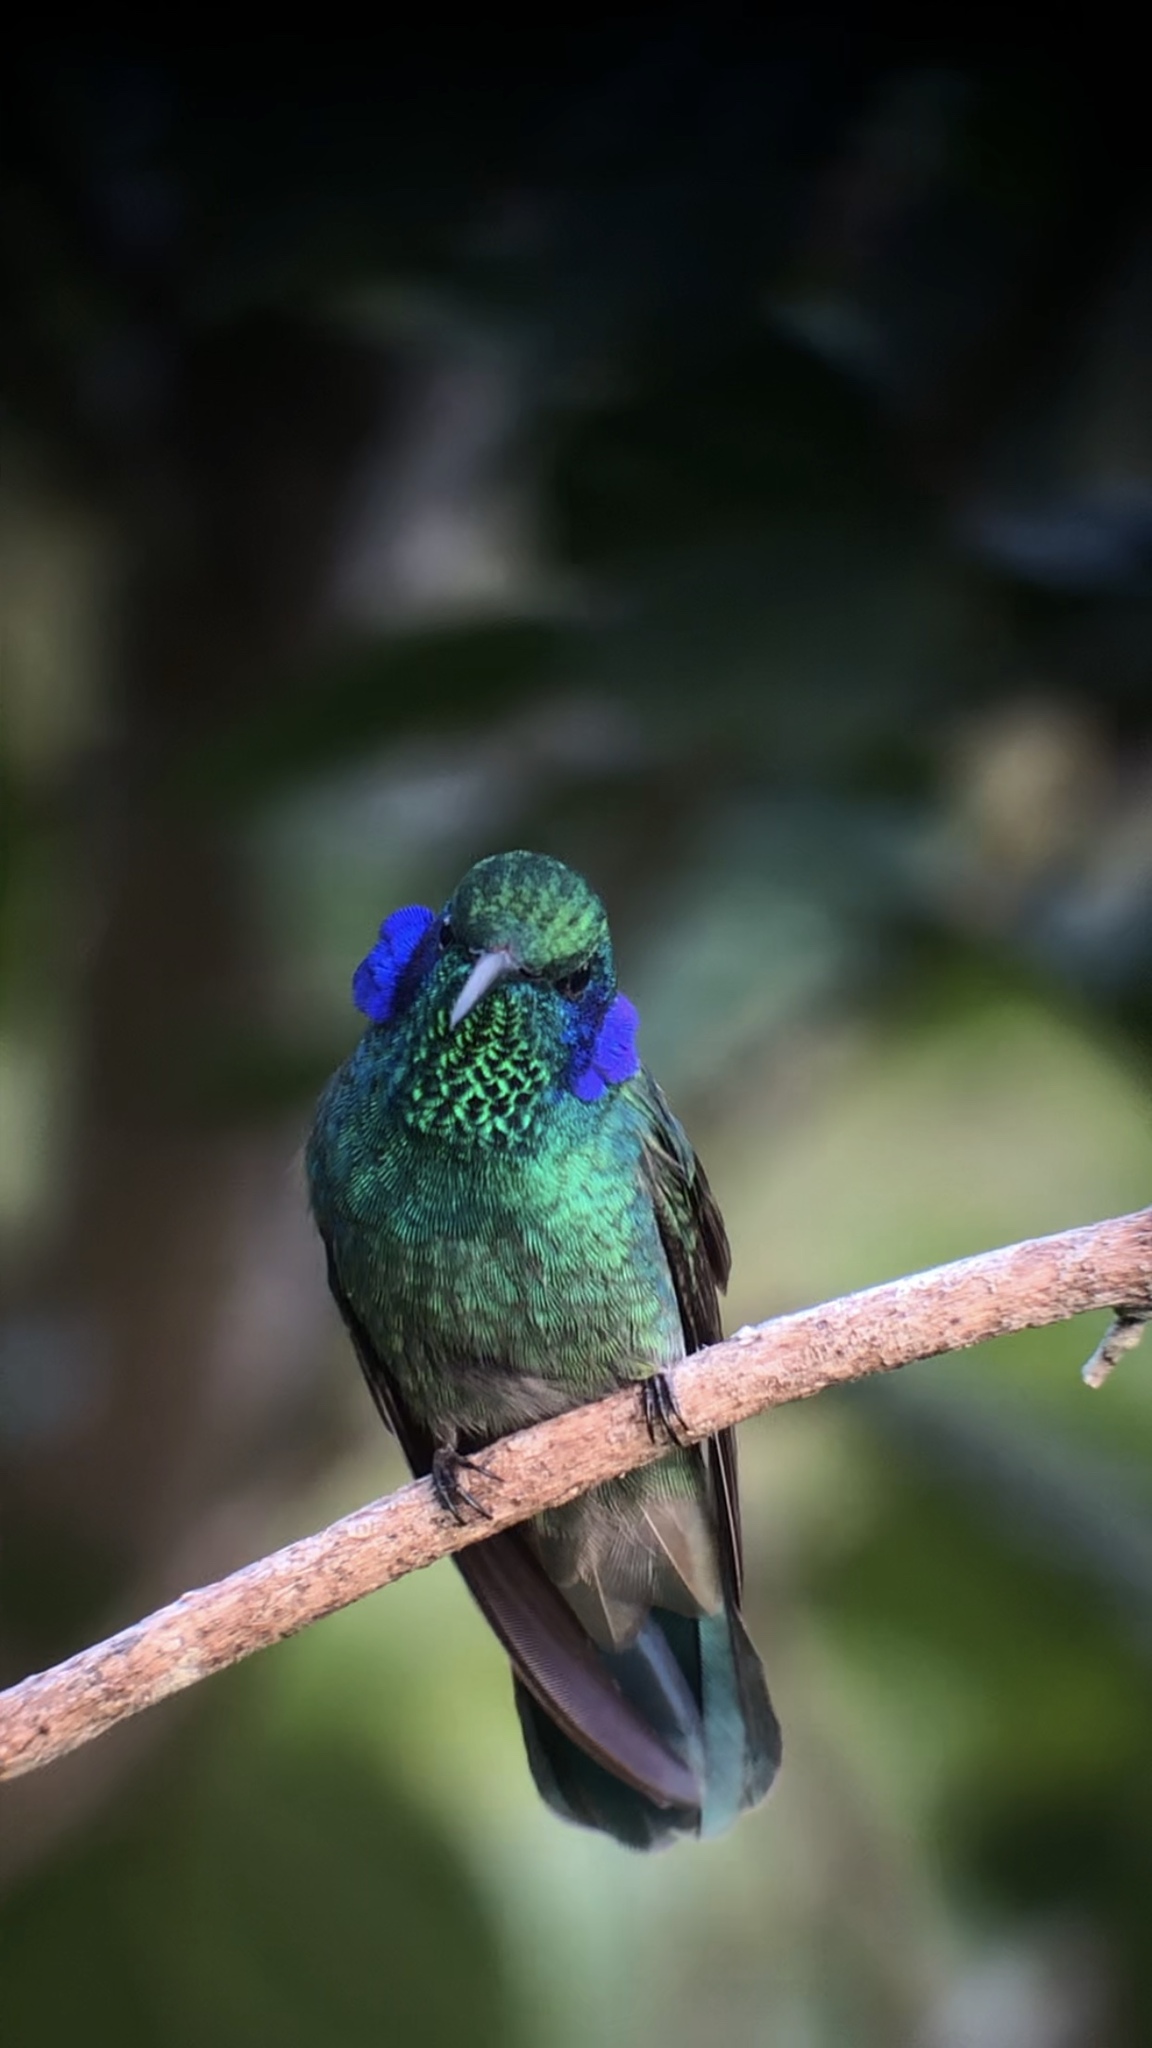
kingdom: Animalia
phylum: Chordata
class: Aves
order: Apodiformes
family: Trochilidae
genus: Colibri
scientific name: Colibri cyanotus
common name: Lesser violetear
